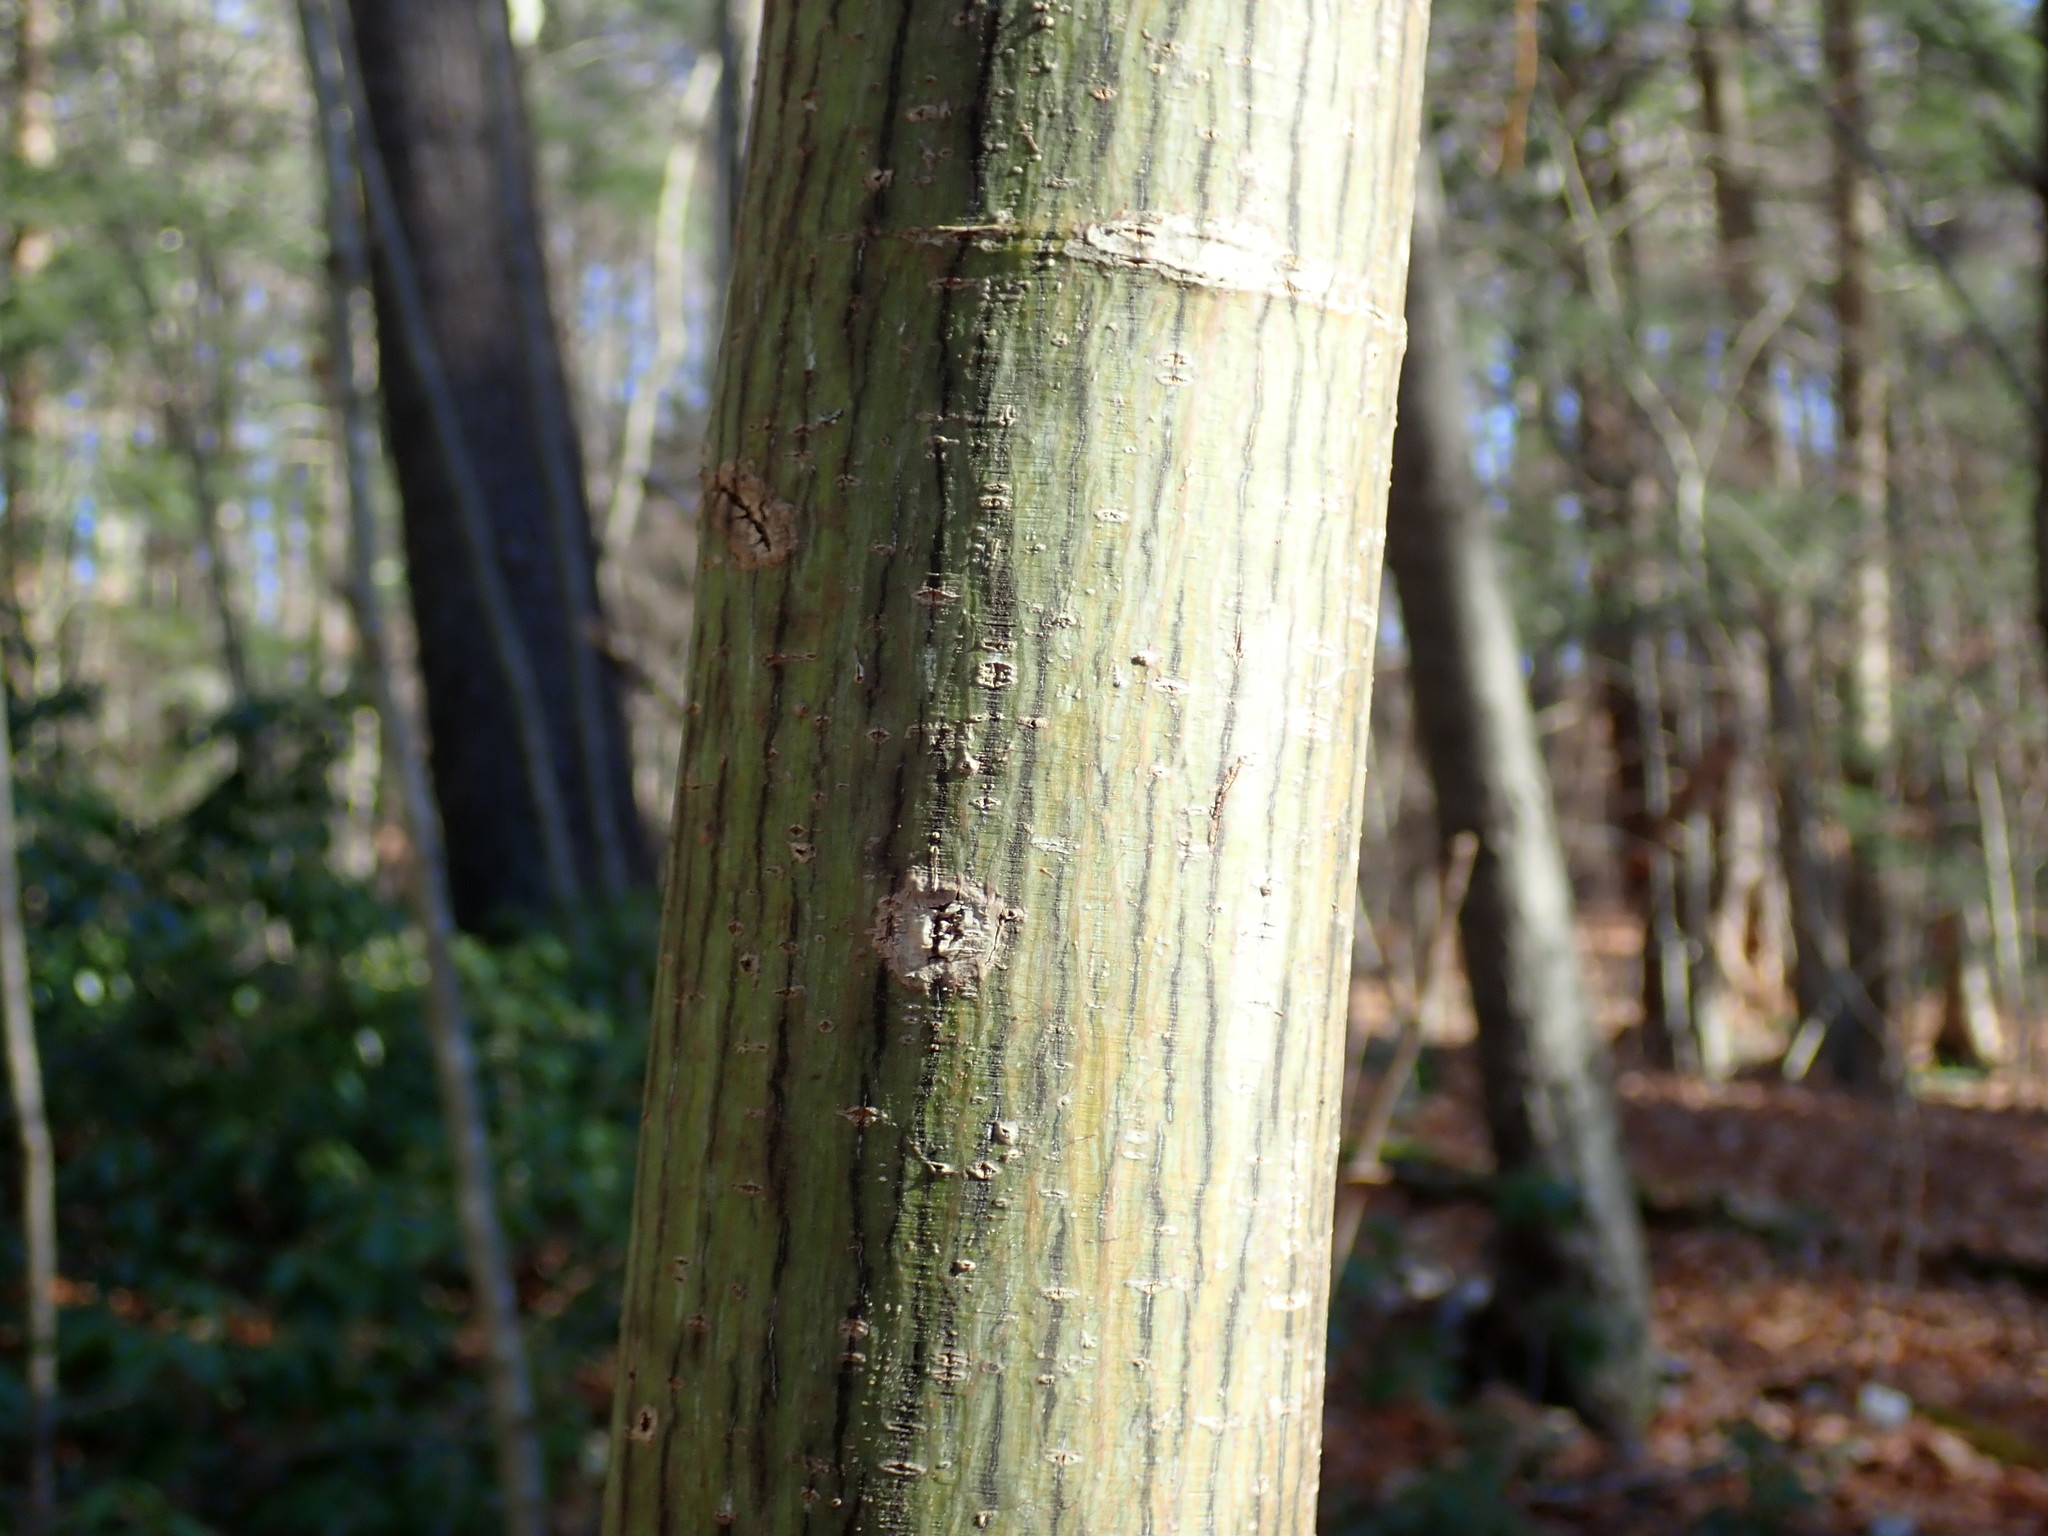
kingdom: Plantae
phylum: Tracheophyta
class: Magnoliopsida
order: Sapindales
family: Sapindaceae
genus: Acer
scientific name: Acer pensylvanicum
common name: Moosewood
